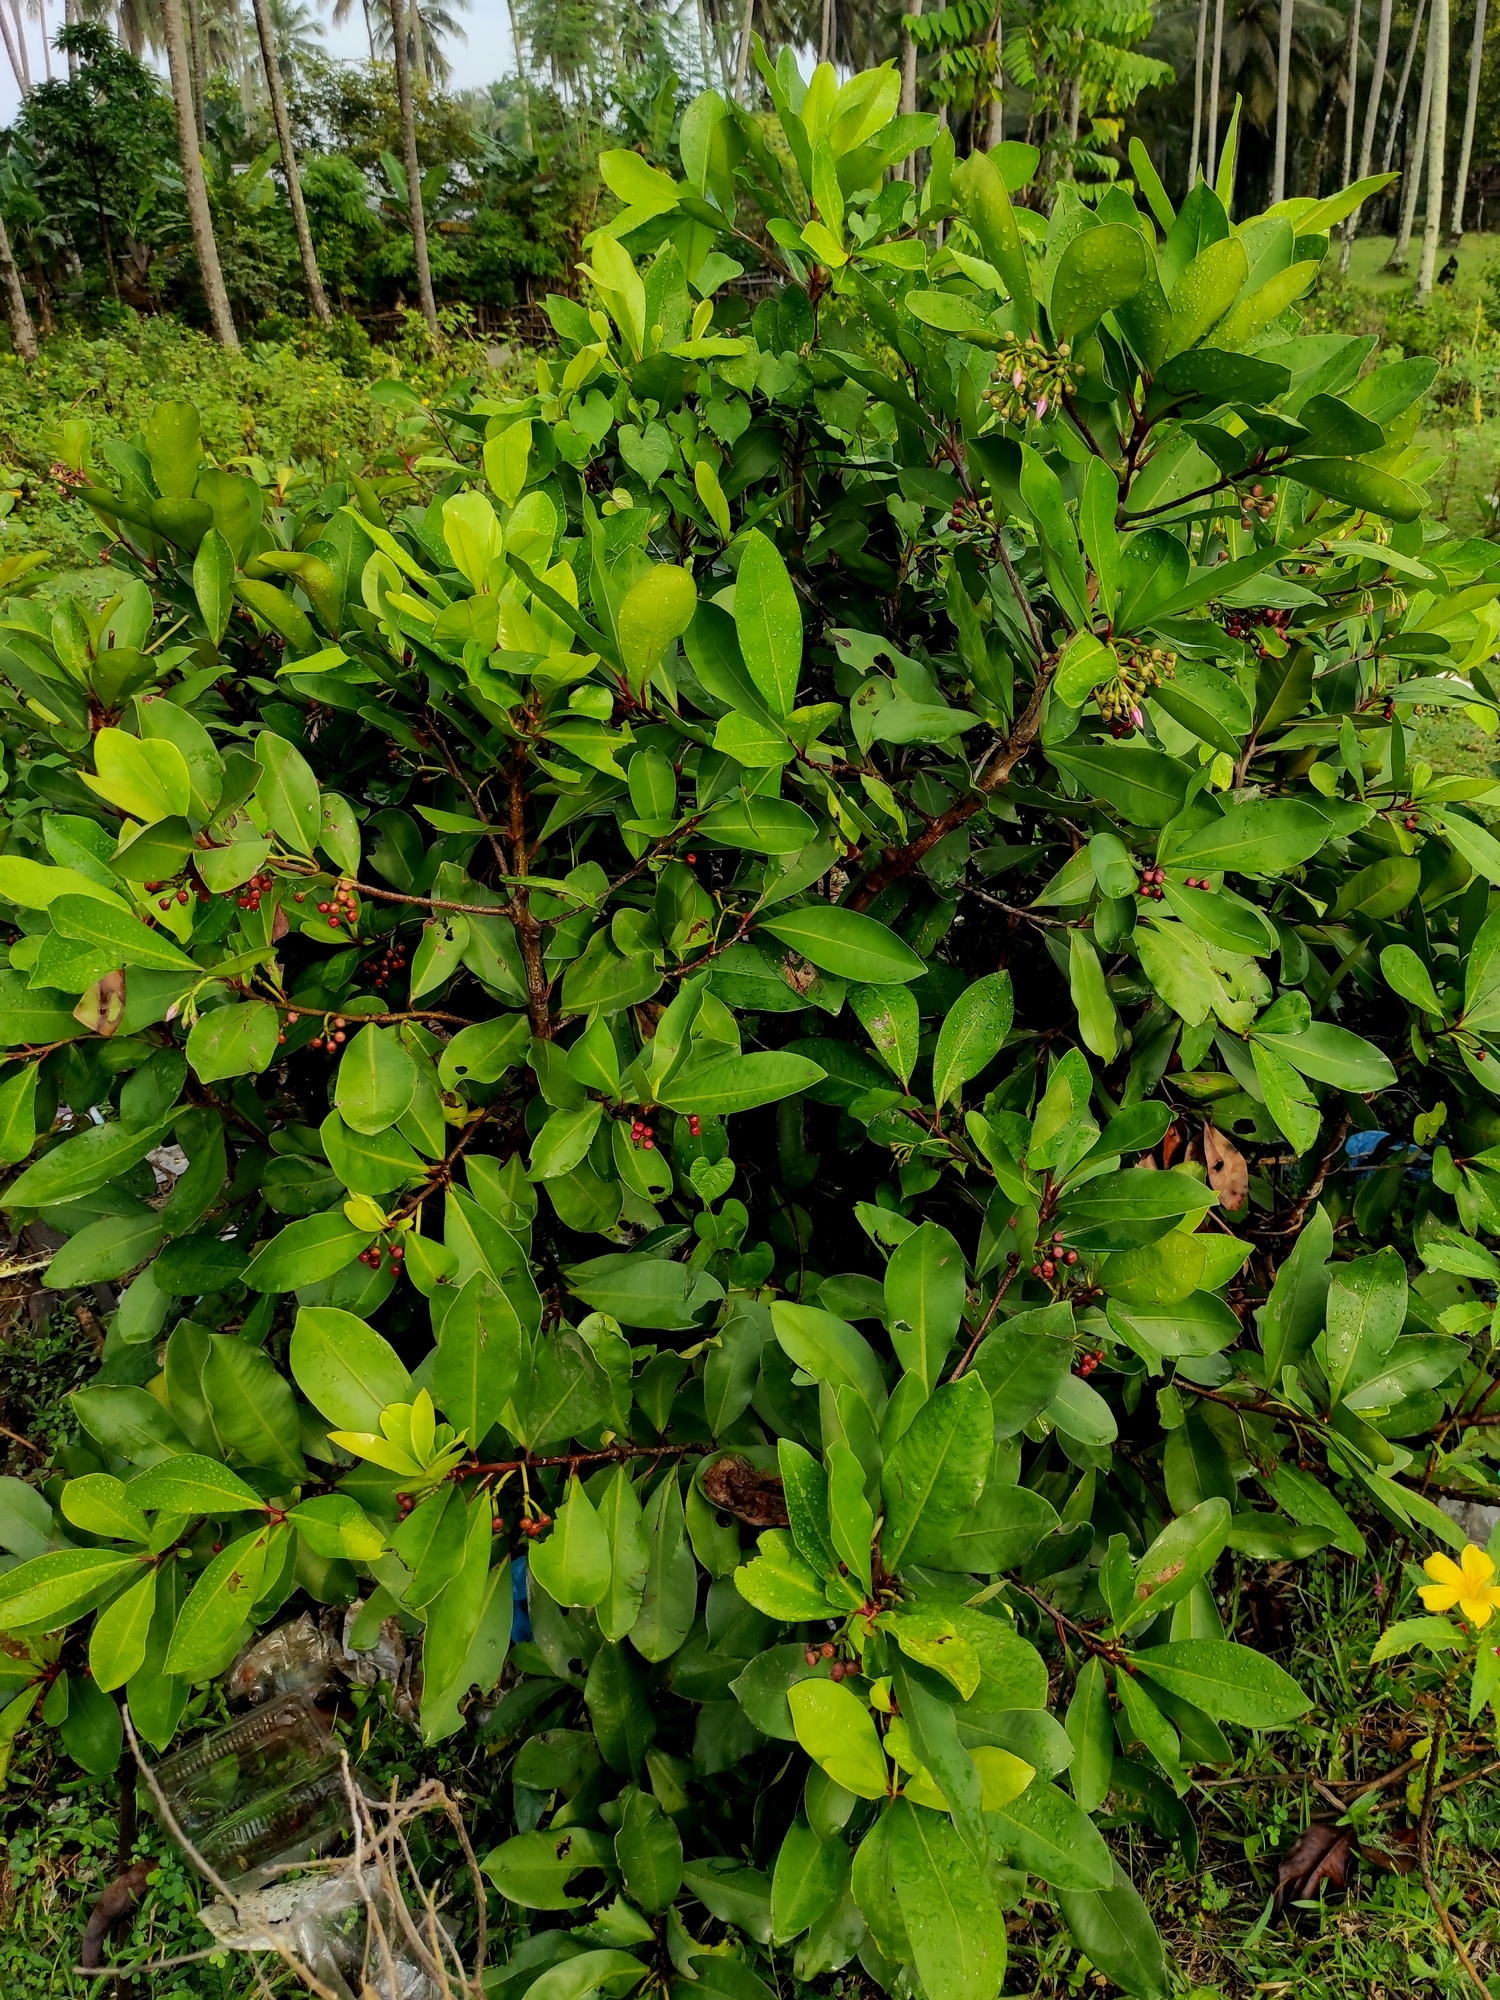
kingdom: Plantae
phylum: Tracheophyta
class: Magnoliopsida
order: Ericales
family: Primulaceae
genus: Ardisia
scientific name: Ardisia elliptica
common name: Shoebutton
